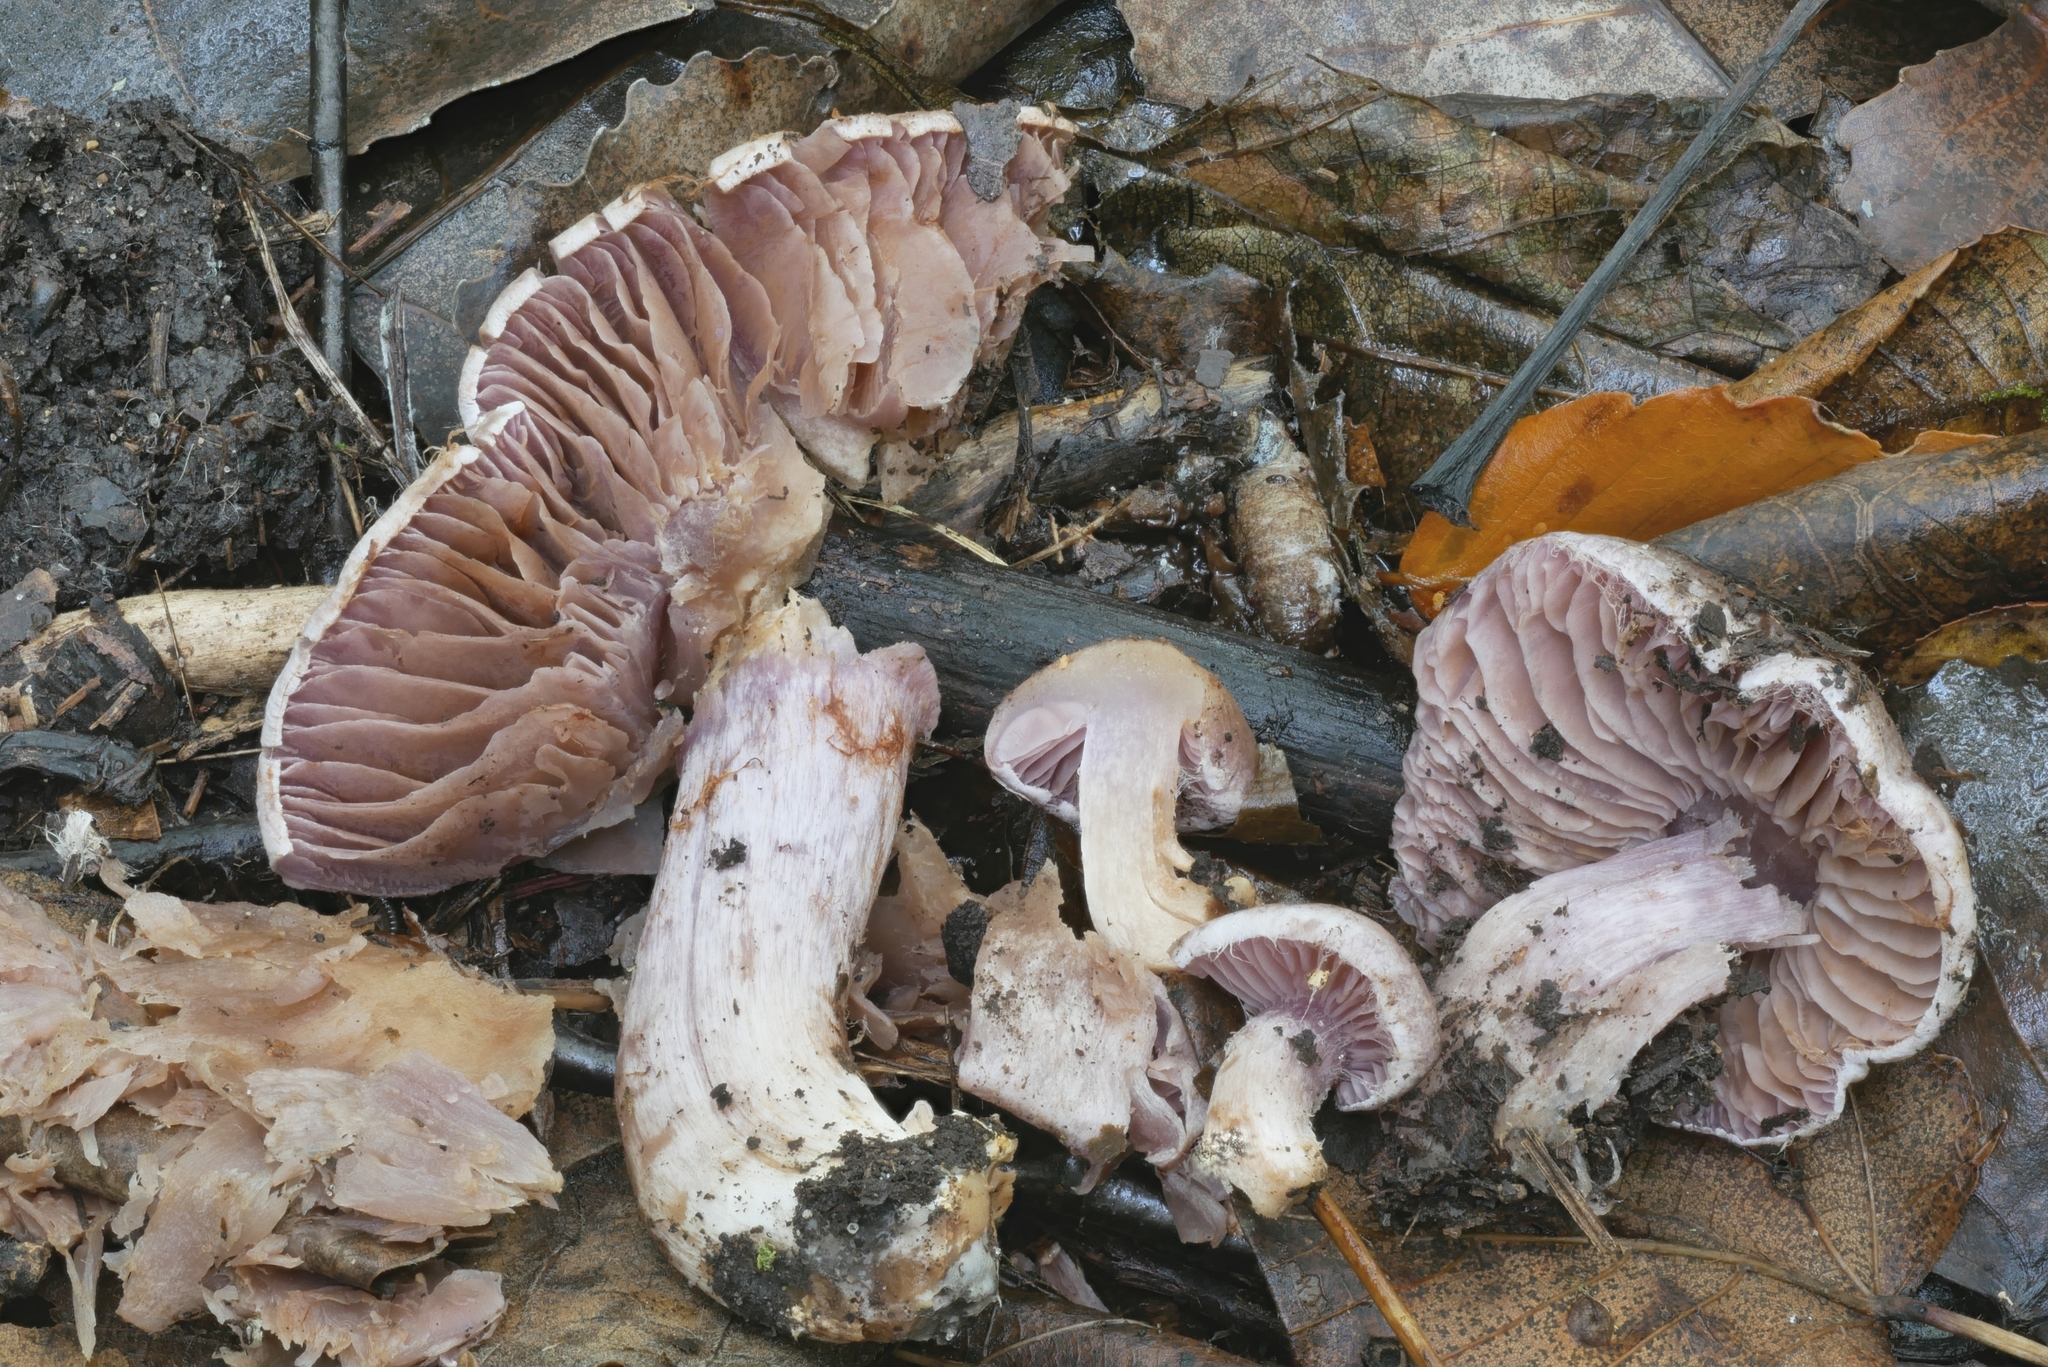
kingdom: Fungi
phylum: Basidiomycota
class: Agaricomycetes
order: Agaricales
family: Cortinariaceae
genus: Cortinarius
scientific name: Cortinarius lucorum
